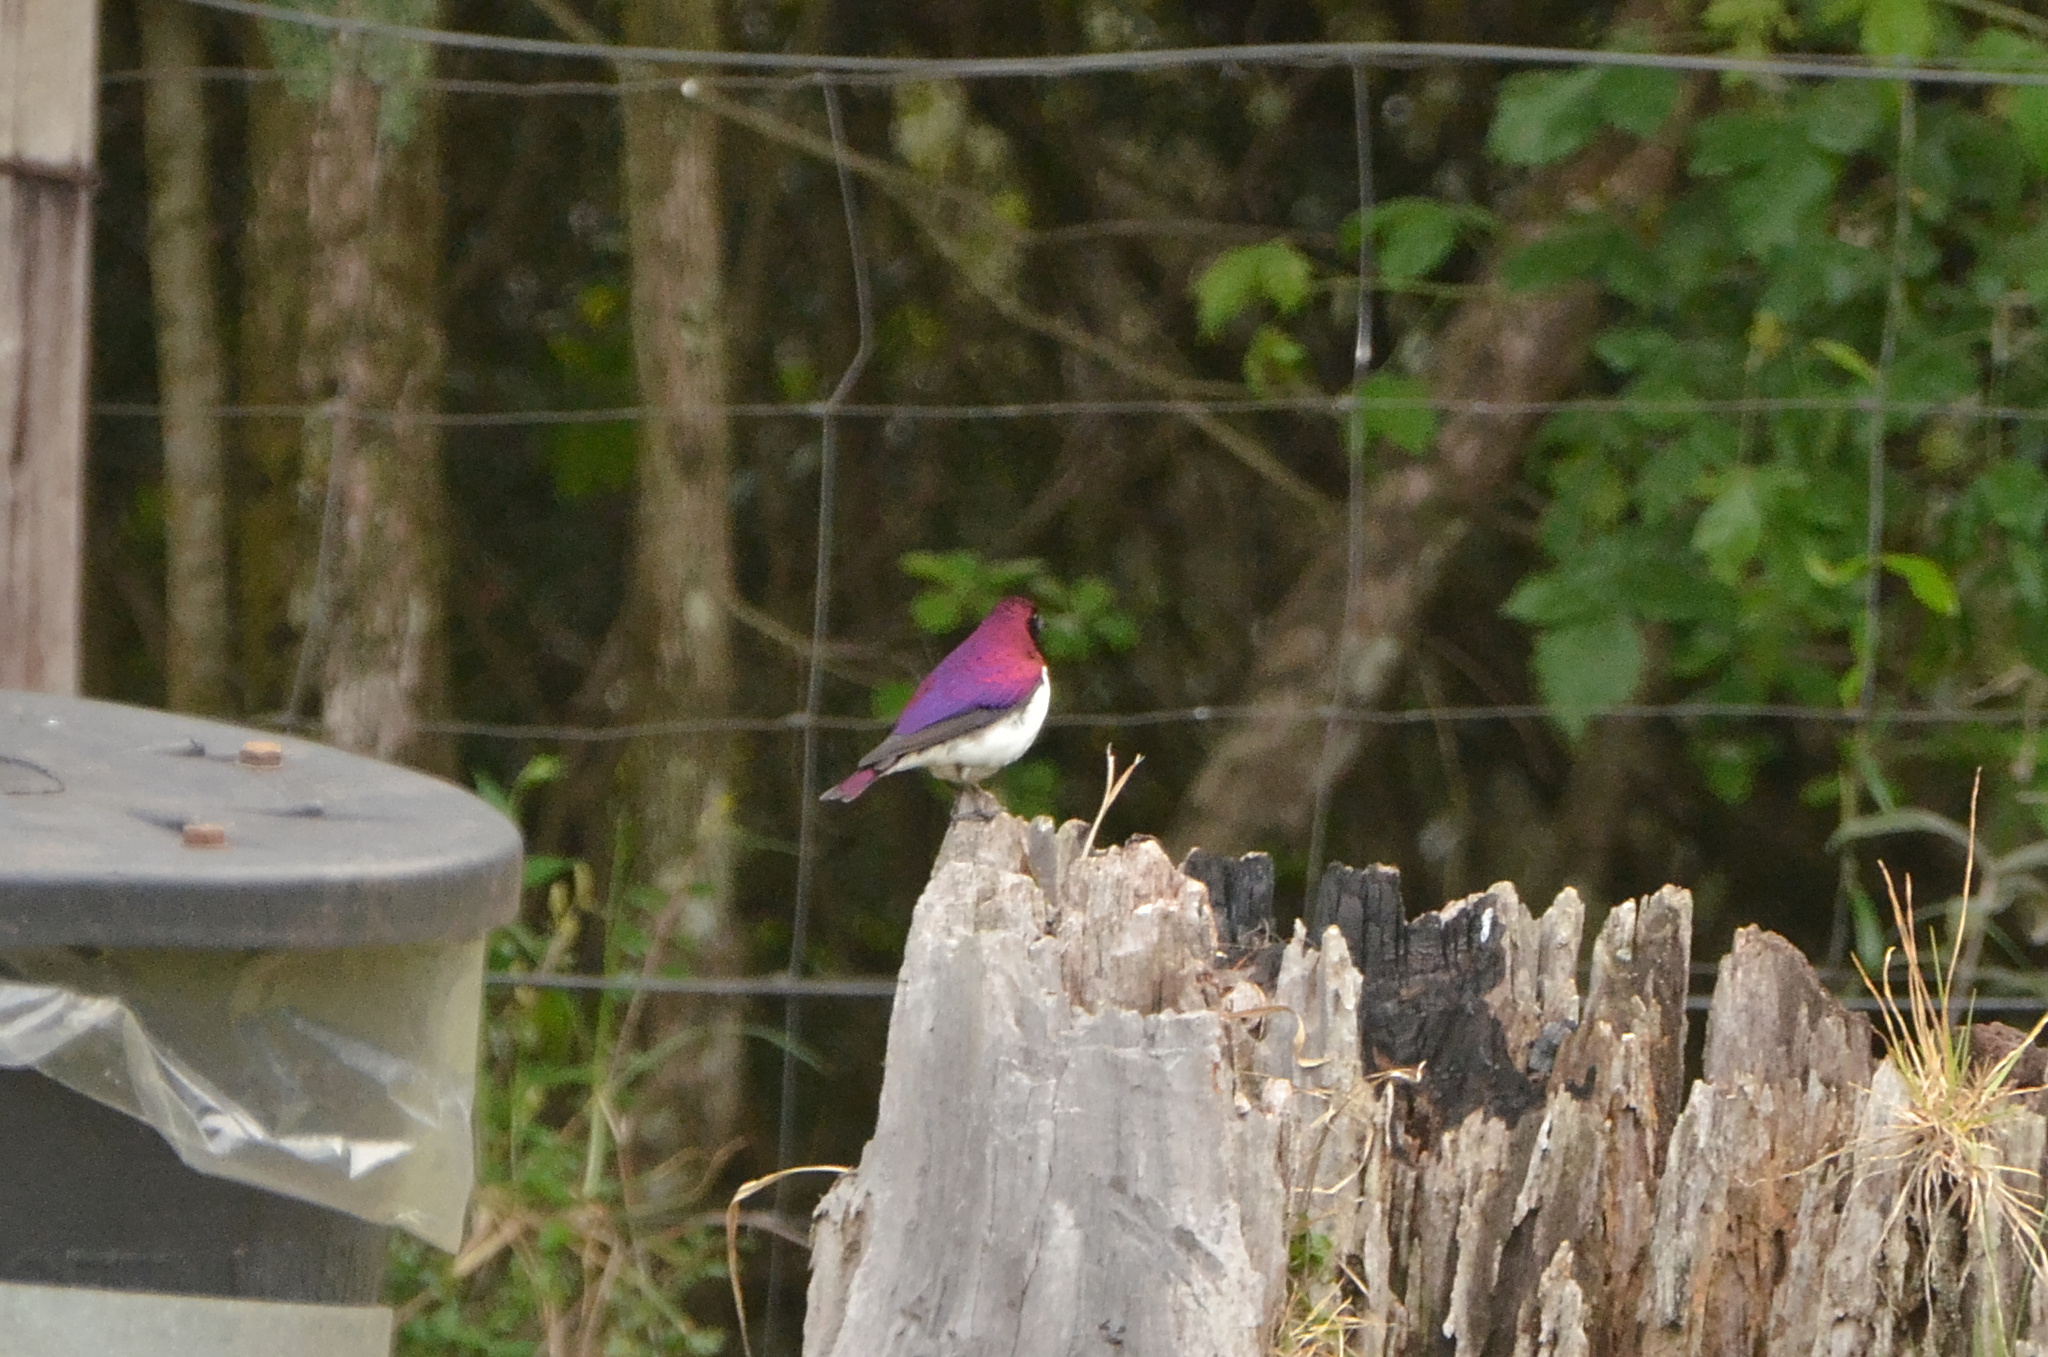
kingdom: Animalia
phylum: Chordata
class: Aves
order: Passeriformes
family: Sturnidae
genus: Cinnyricinclus
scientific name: Cinnyricinclus leucogaster
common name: Violet-backed starling
